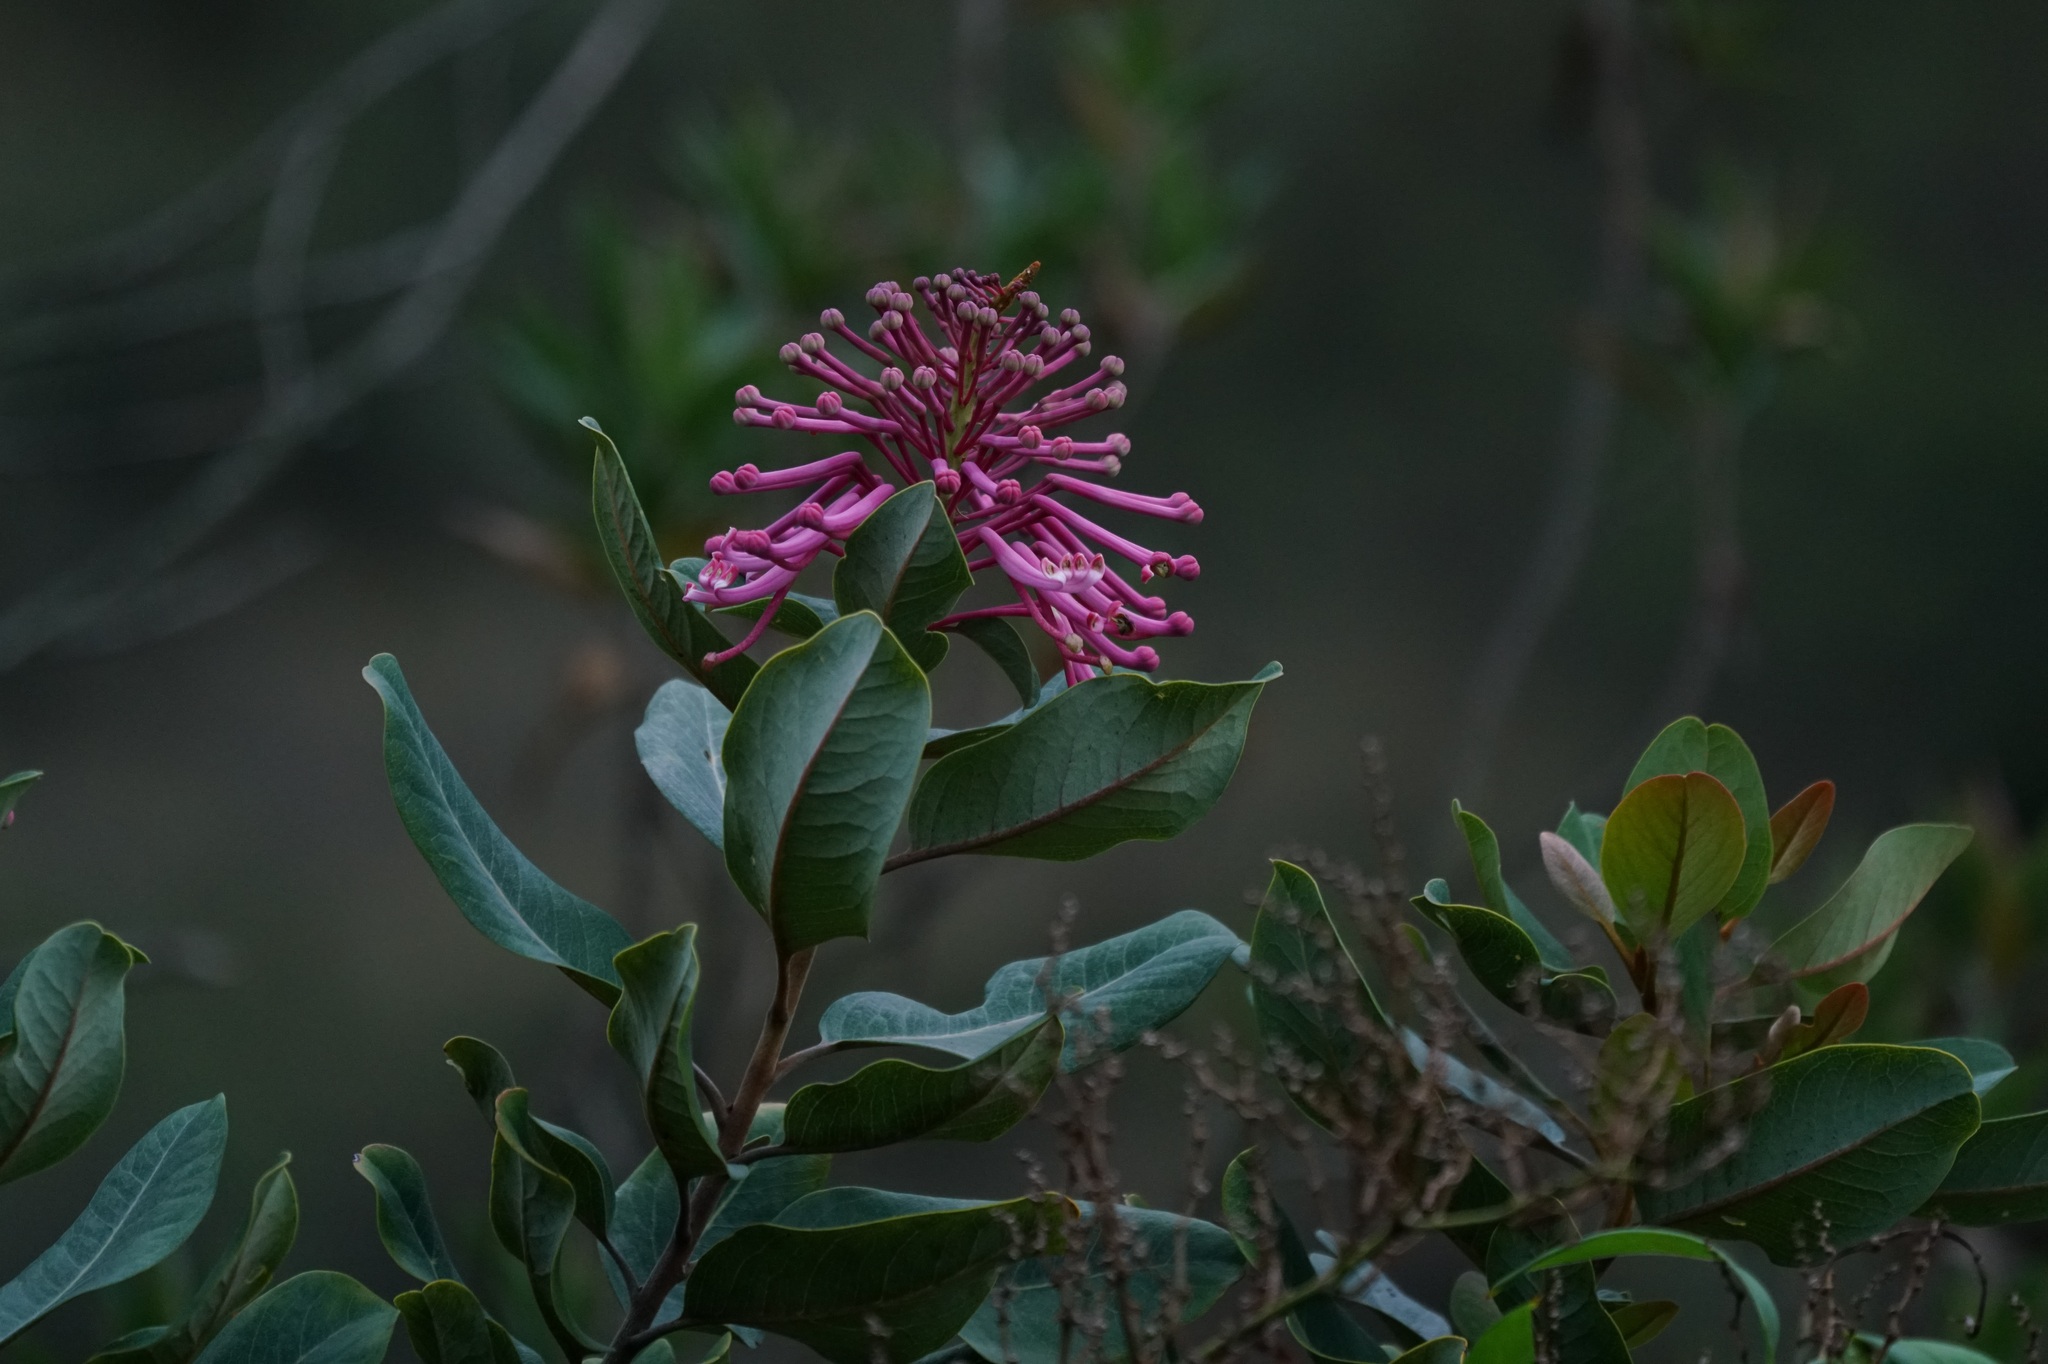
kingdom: Plantae
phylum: Tracheophyta
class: Magnoliopsida
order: Proteales
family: Proteaceae
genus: Oreocallis
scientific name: Oreocallis grandiflora
